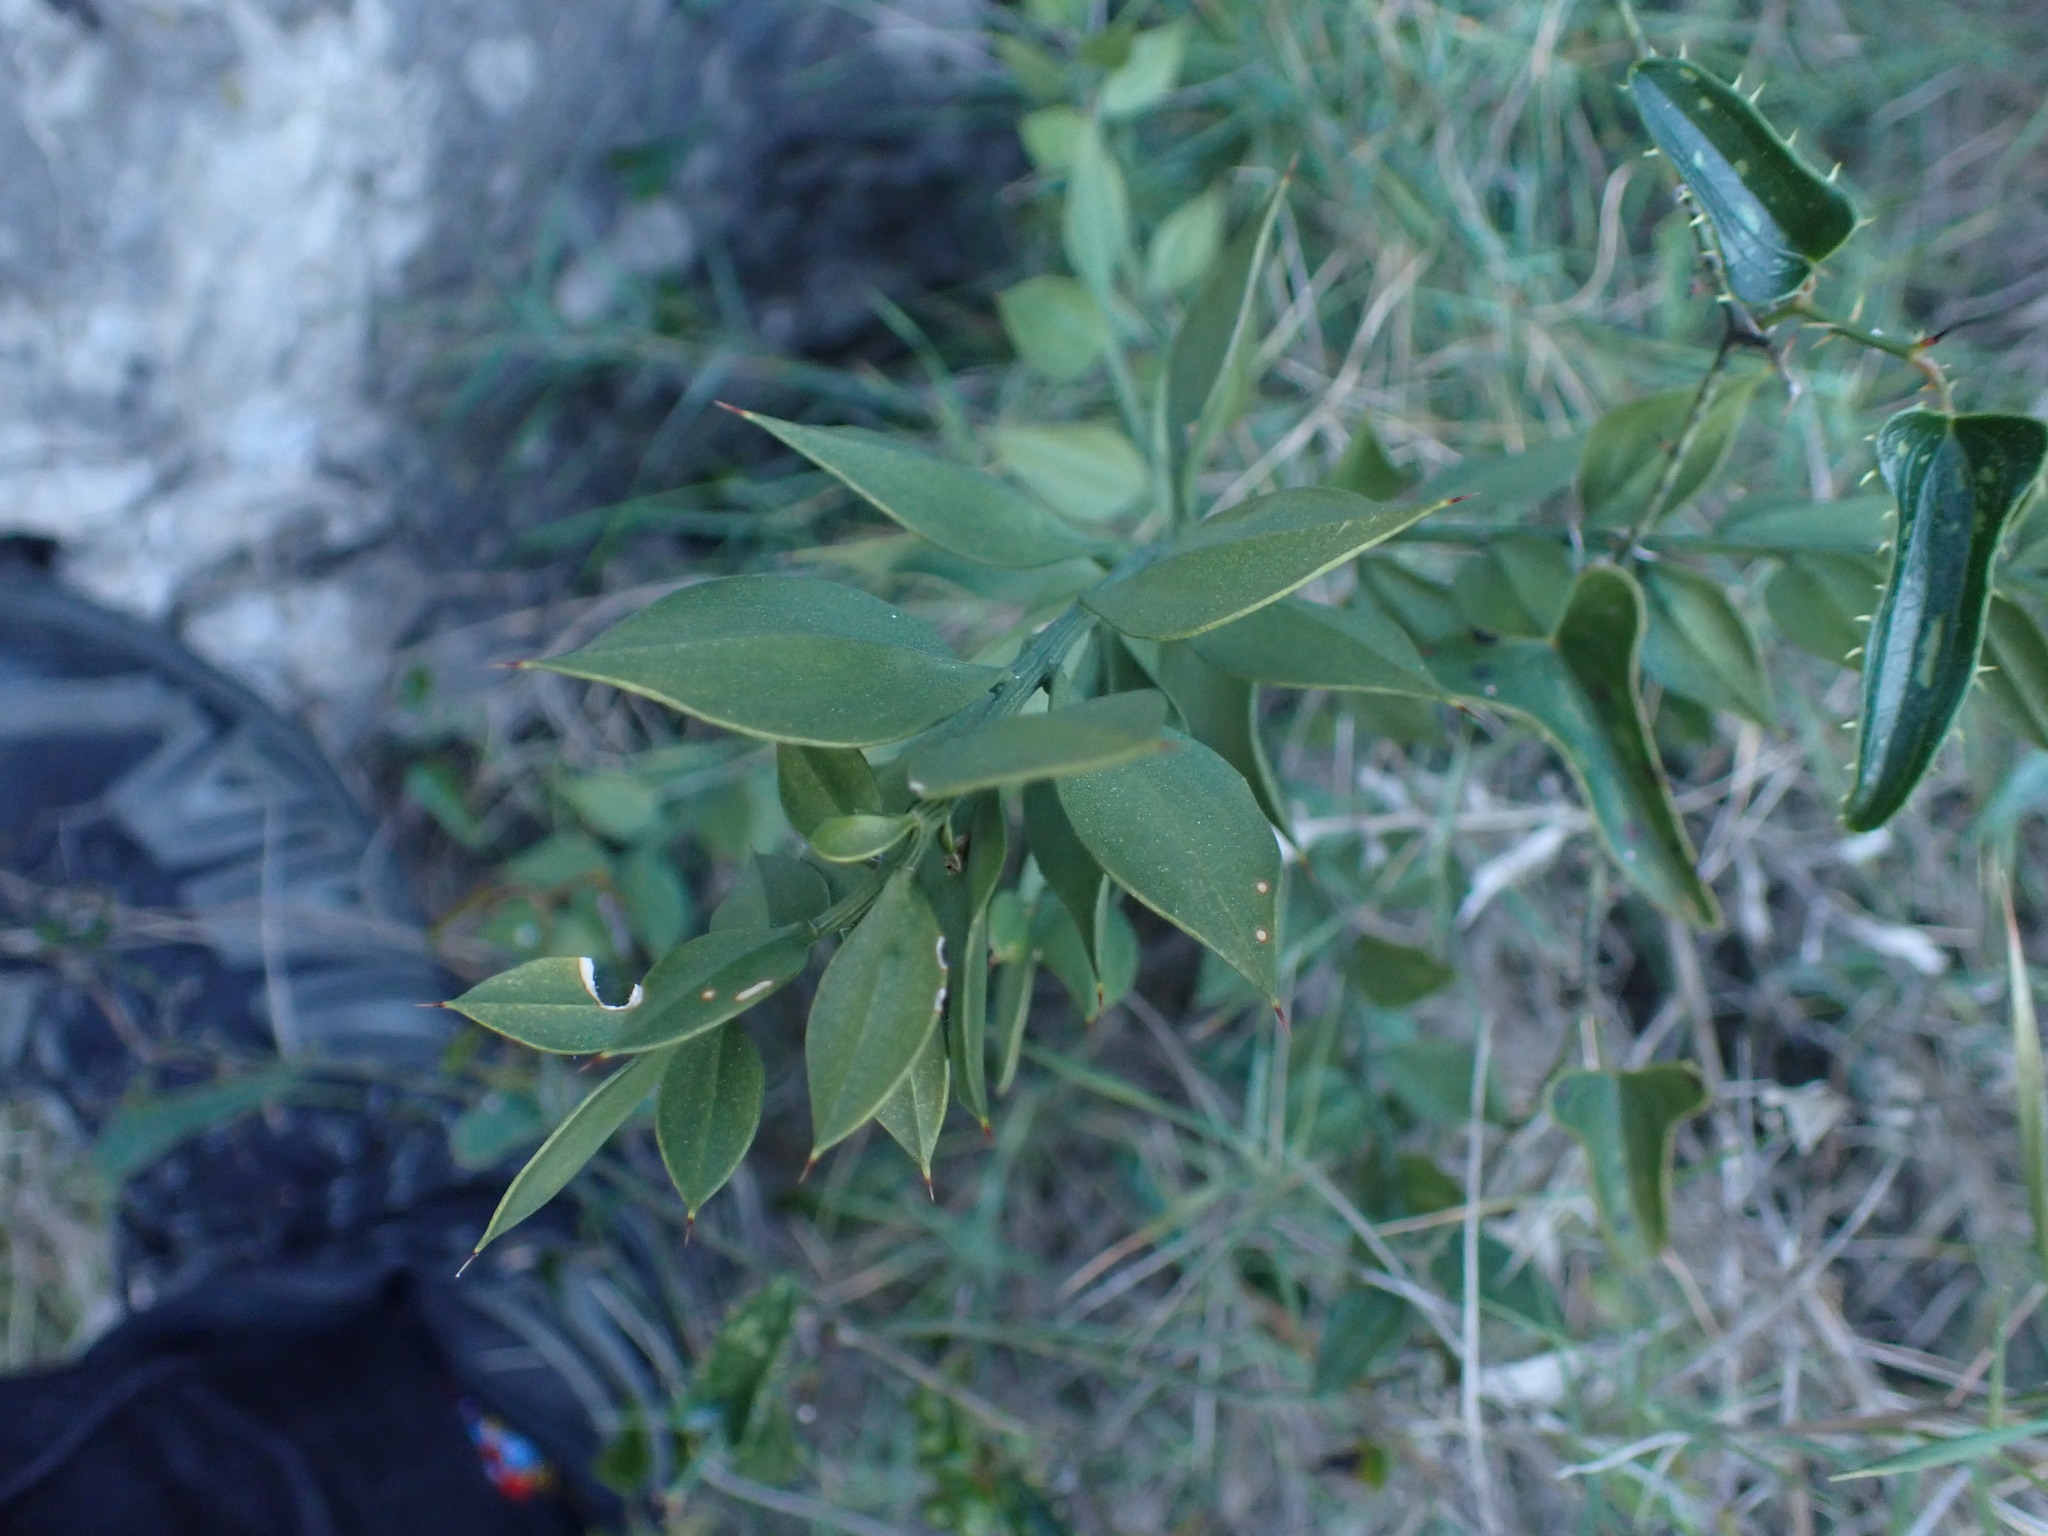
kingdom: Plantae
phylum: Tracheophyta
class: Liliopsida
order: Asparagales
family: Asparagaceae
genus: Ruscus
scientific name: Ruscus aculeatus
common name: Butcher's-broom
